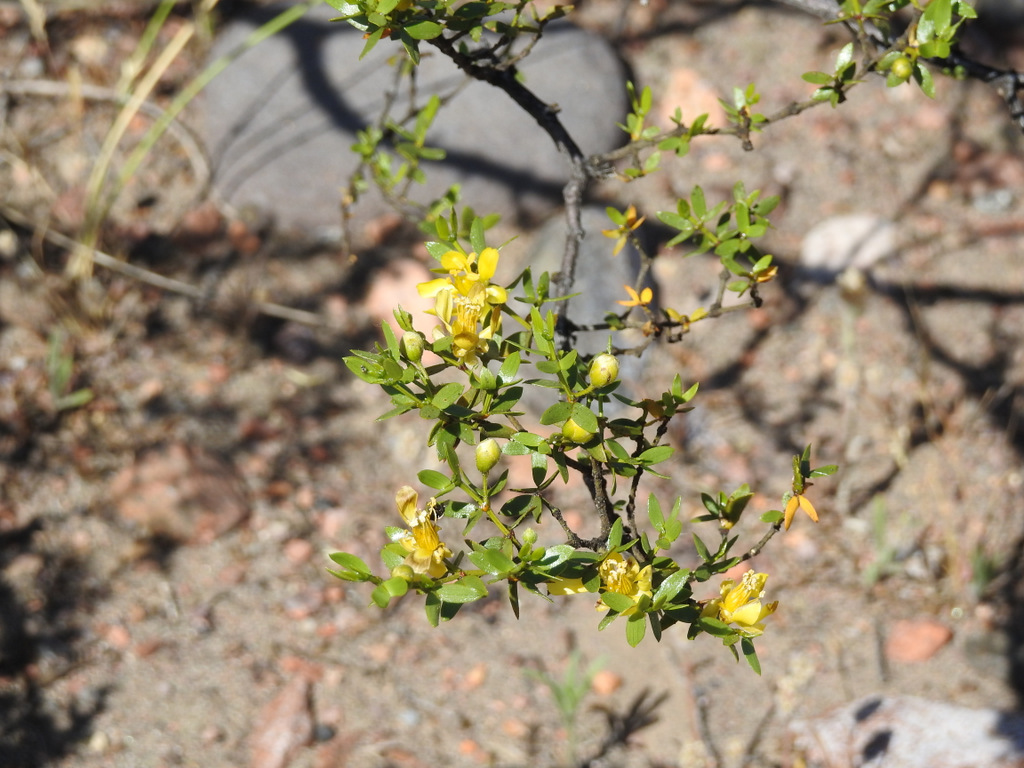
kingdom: Plantae
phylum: Tracheophyta
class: Magnoliopsida
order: Zygophyllales
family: Zygophyllaceae
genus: Larrea
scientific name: Larrea divaricata
